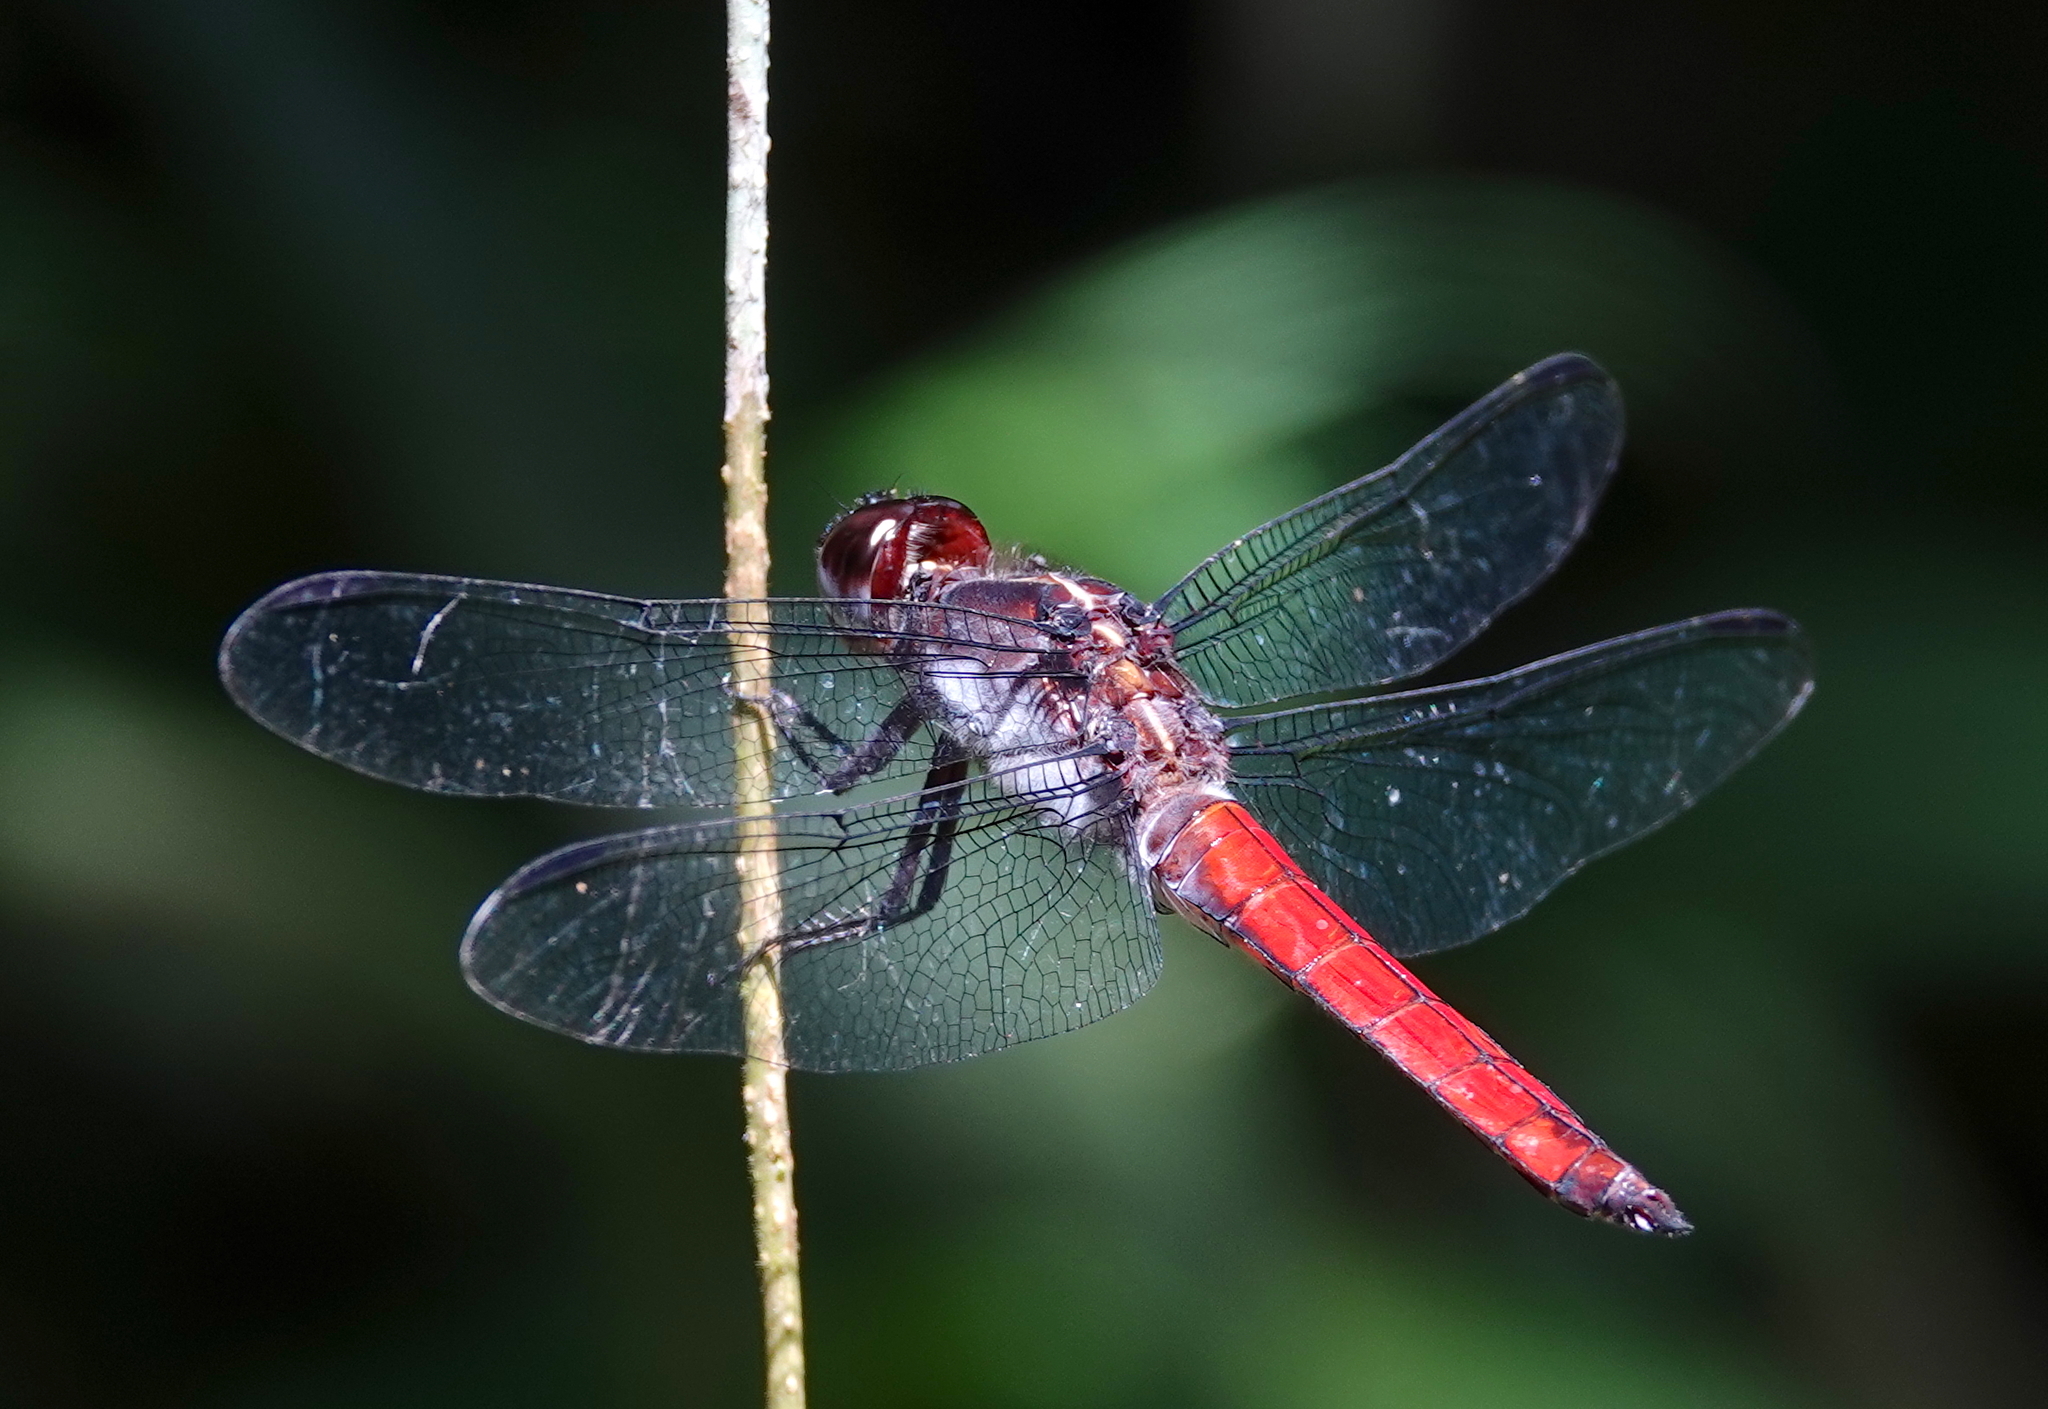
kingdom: Animalia
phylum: Arthropoda
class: Insecta
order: Odonata
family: Libellulidae
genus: Libellula
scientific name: Libellula herculea
